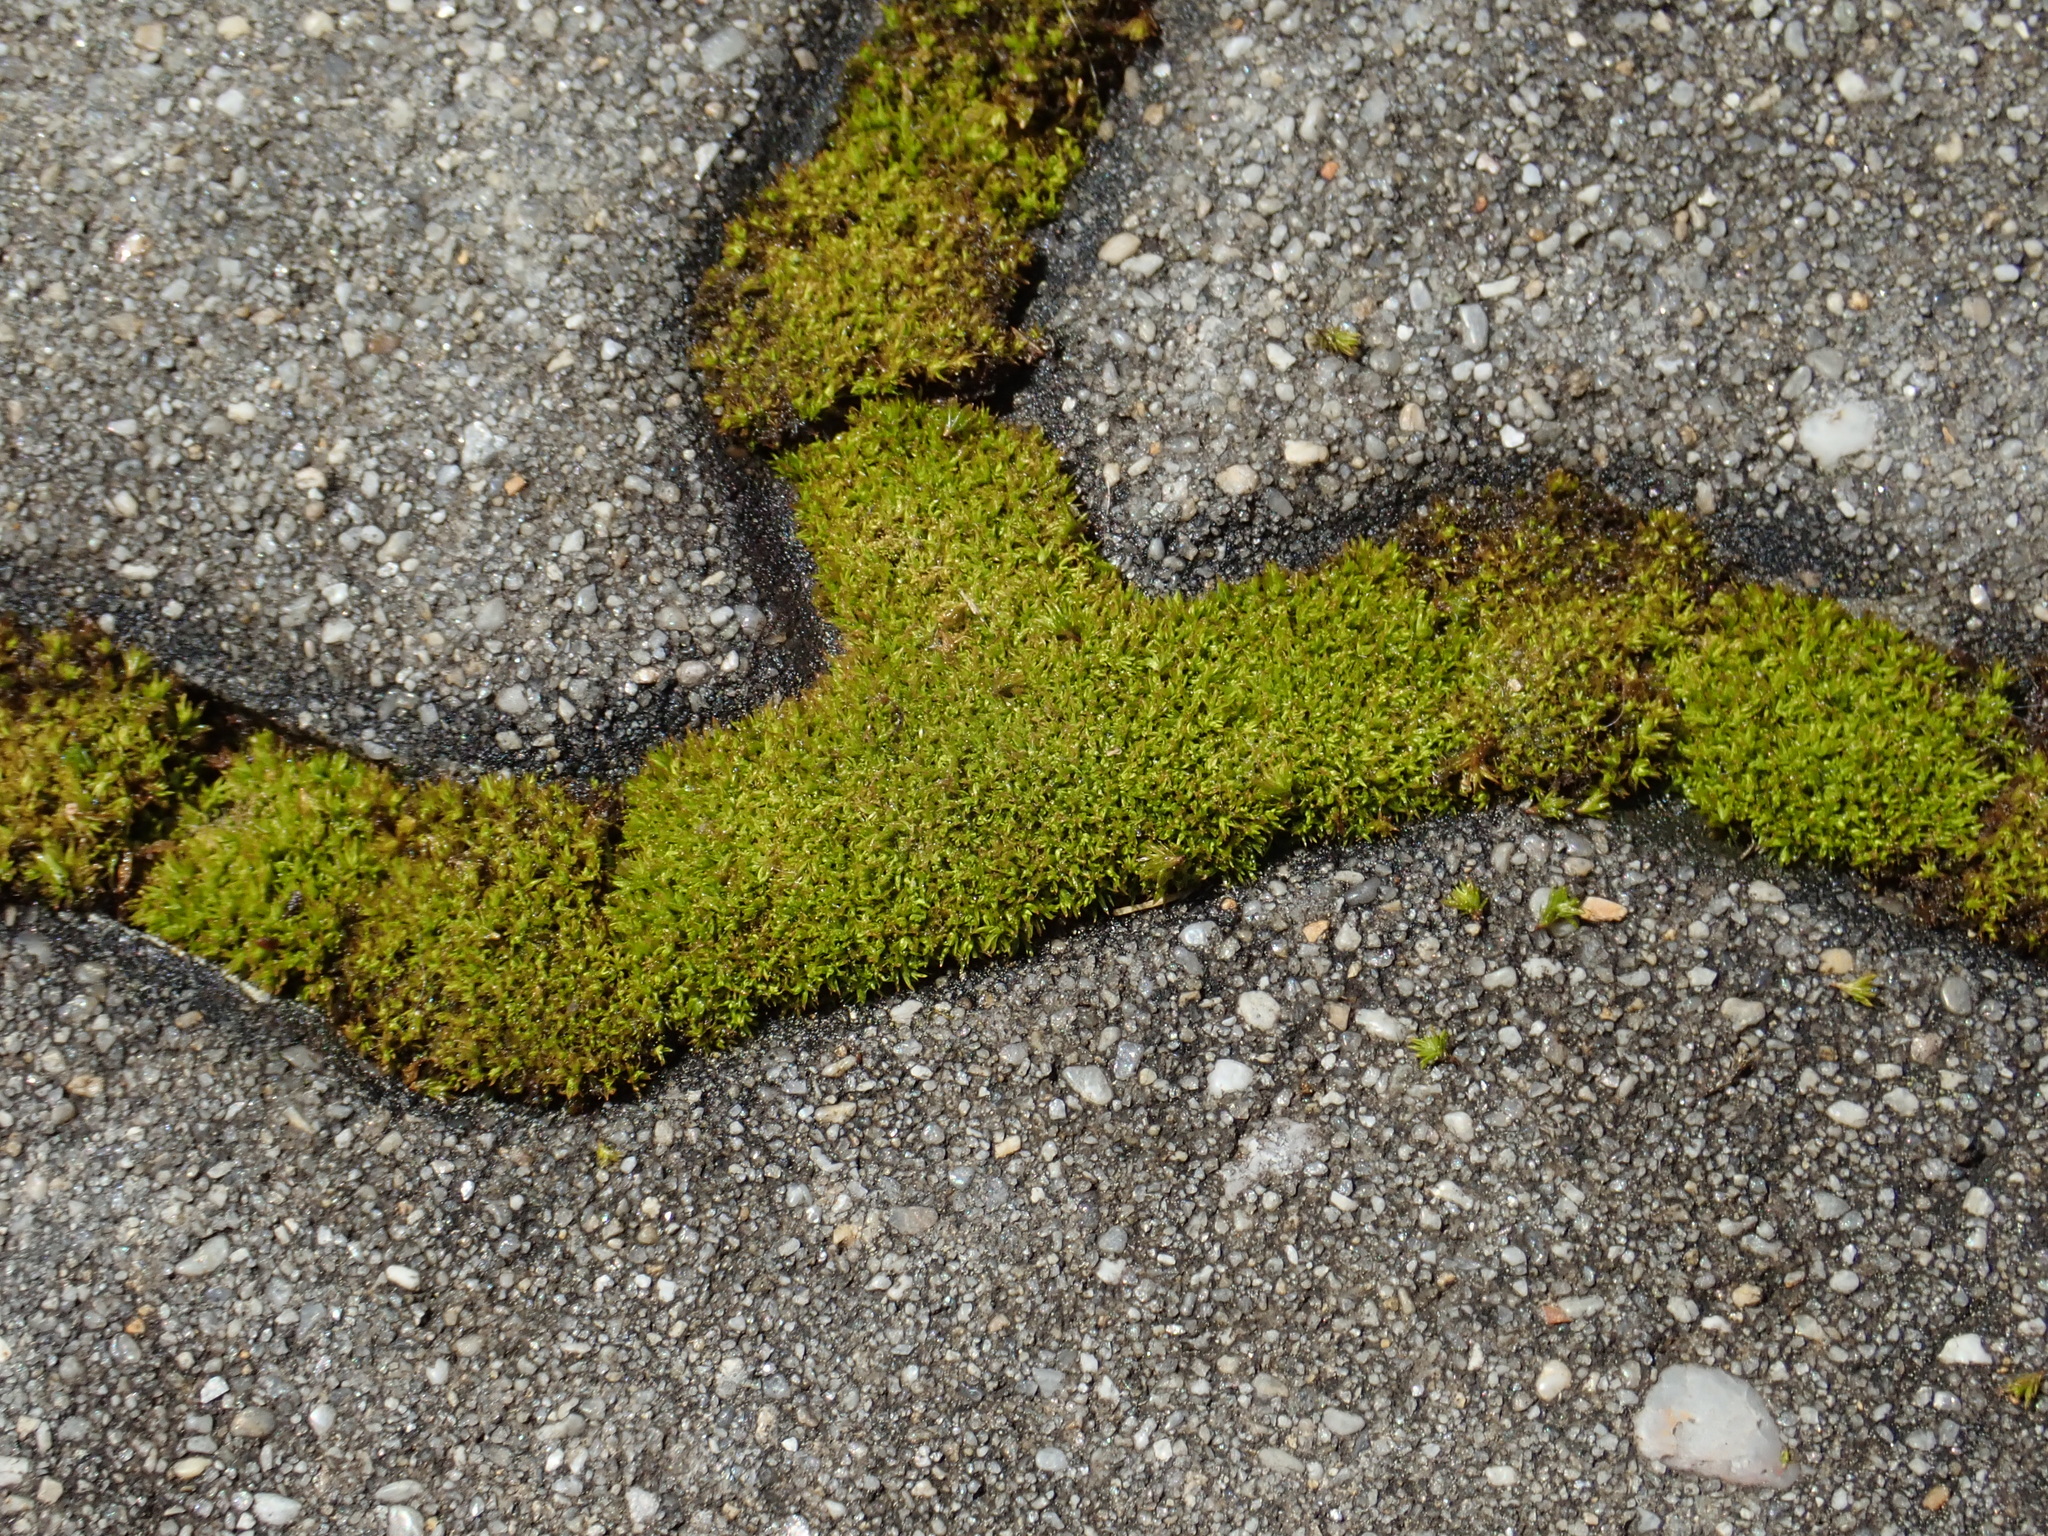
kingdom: Plantae
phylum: Bryophyta
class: Bryopsida
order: Pottiales
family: Pottiaceae
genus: Tortella
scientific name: Tortella inclinata
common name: Inclined twisted moss
